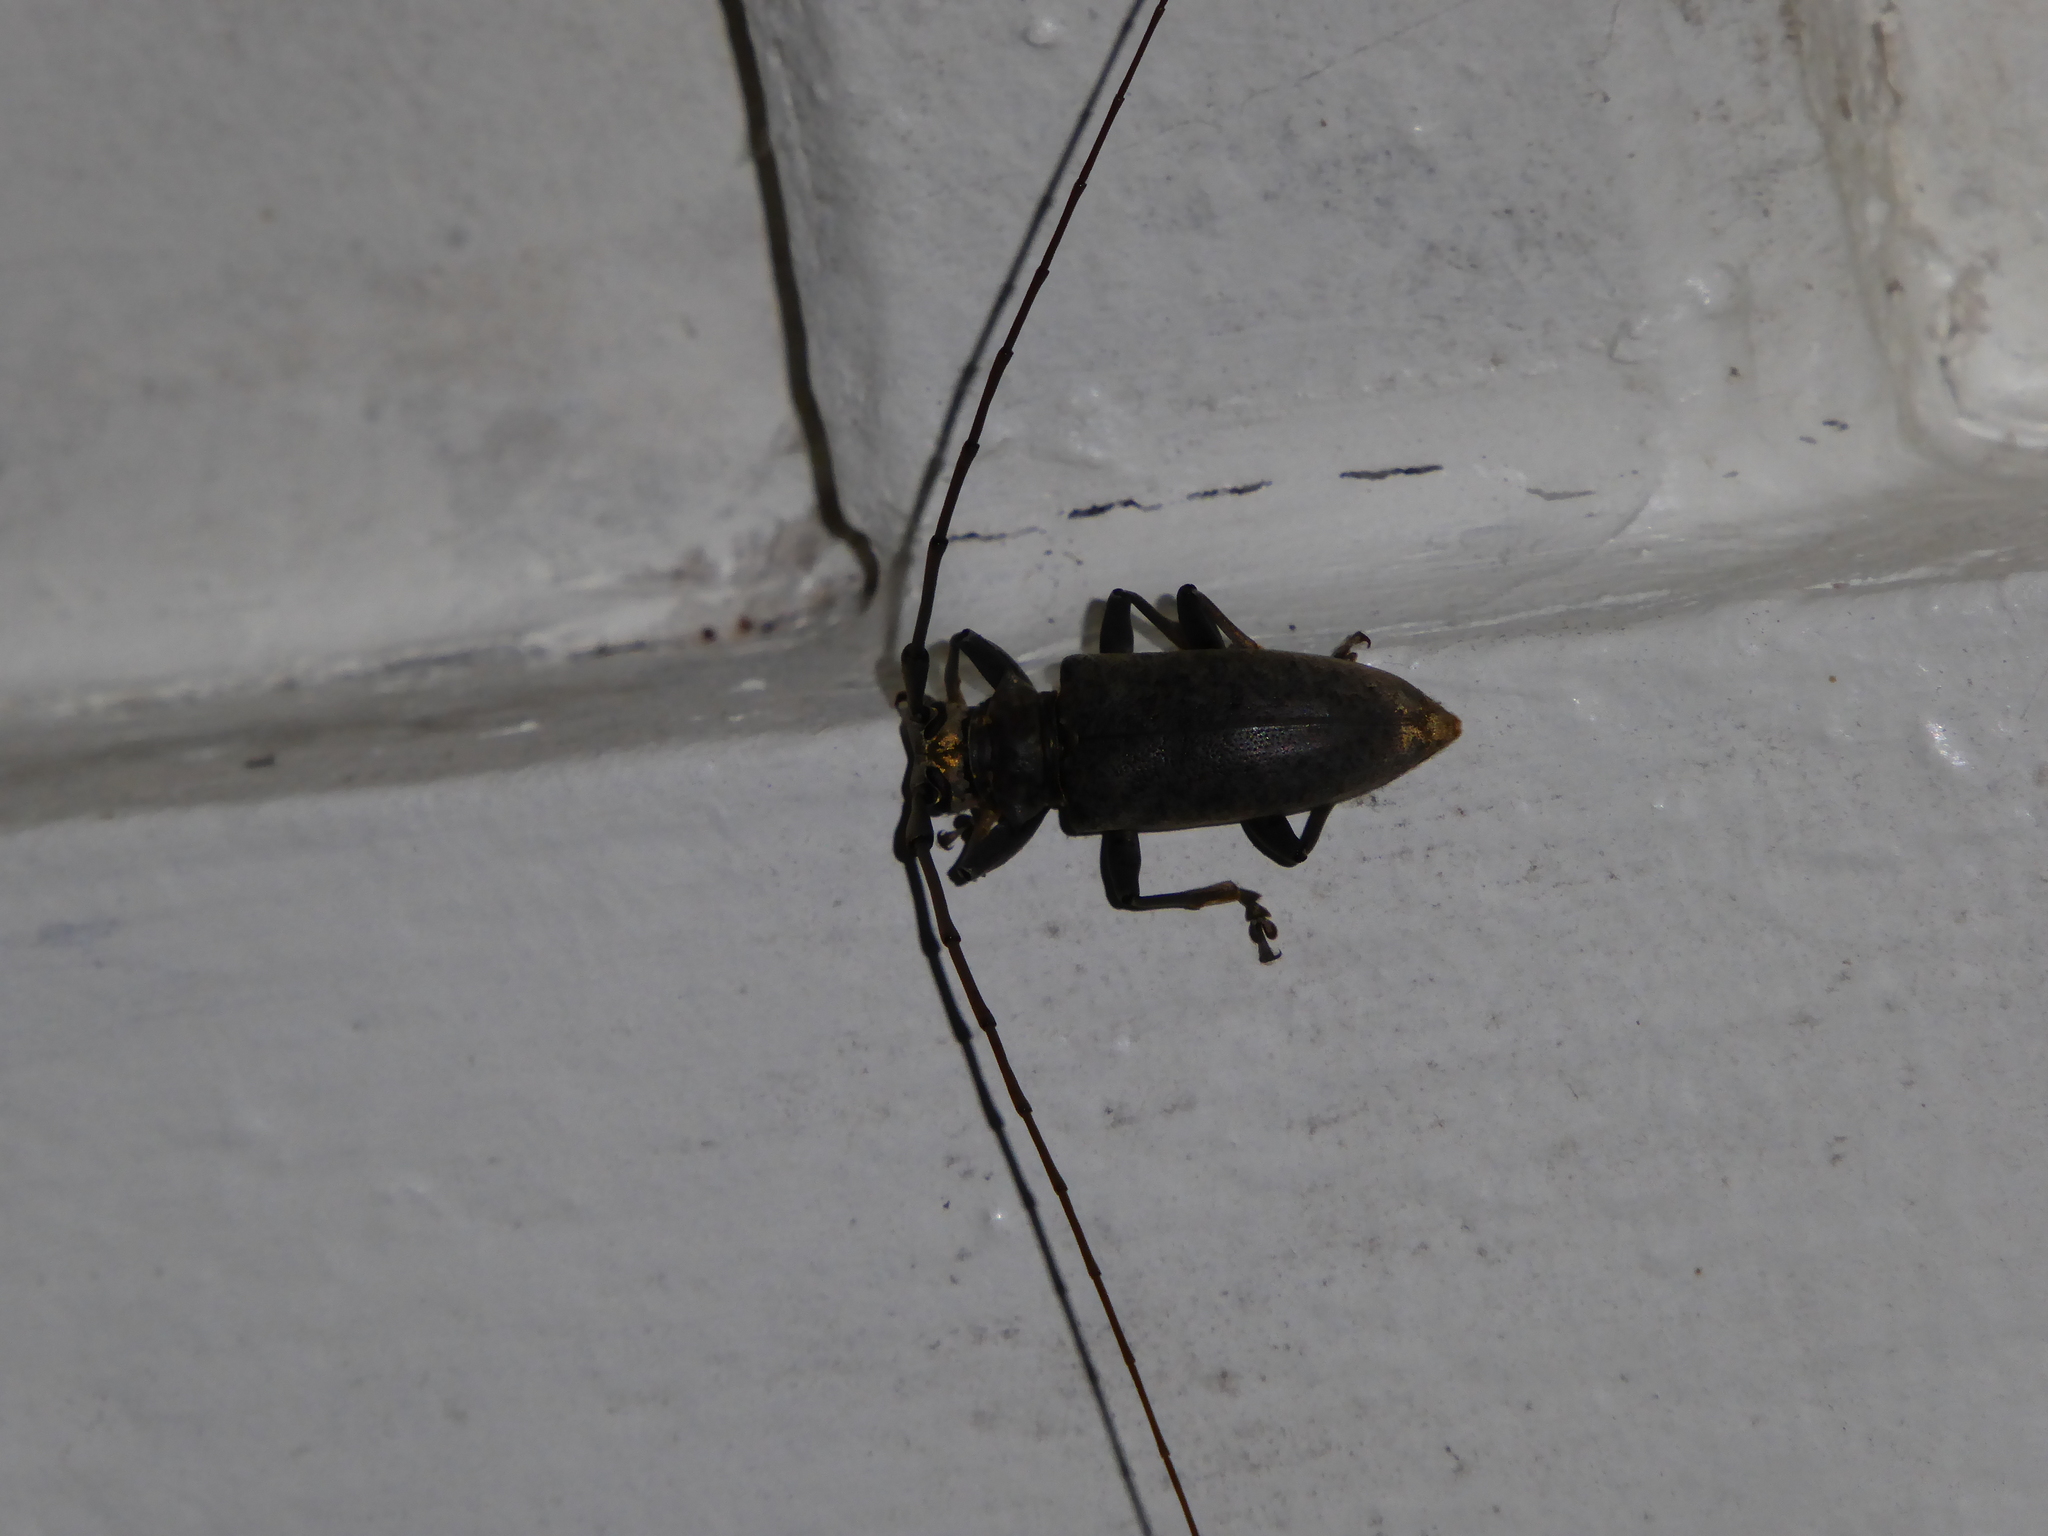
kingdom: Animalia
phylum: Arthropoda
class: Insecta
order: Coleoptera
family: Cerambycidae
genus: Acalolepta
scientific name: Acalolepta sulcicollis
